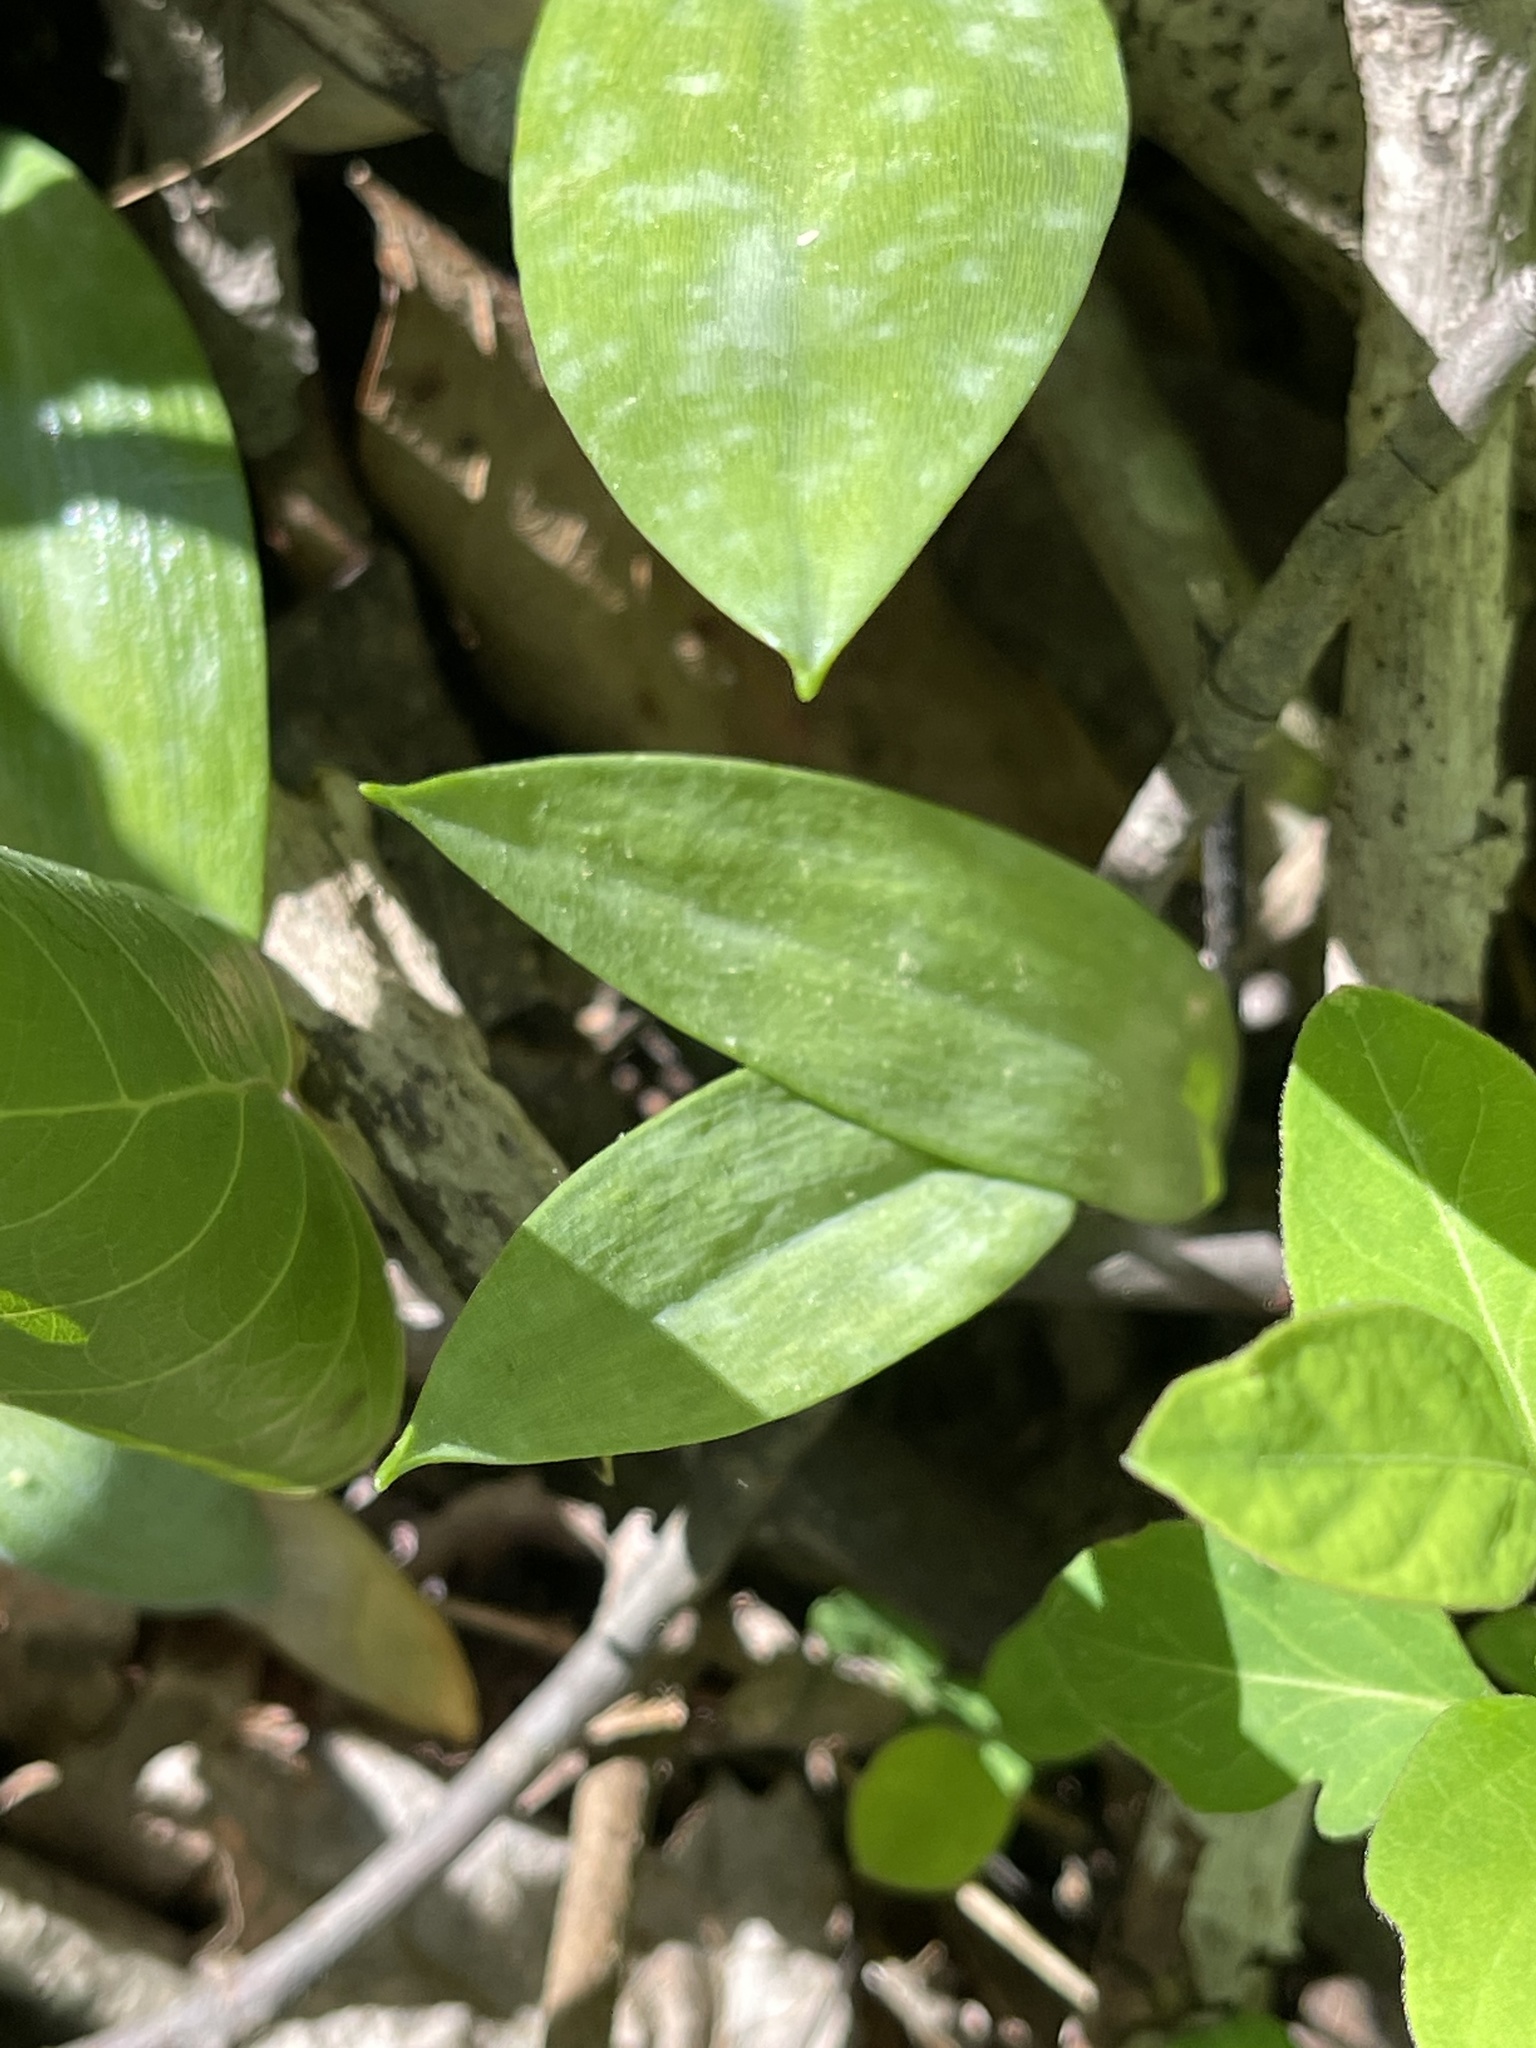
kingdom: Plantae
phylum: Tracheophyta
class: Liliopsida
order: Liliales
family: Liliaceae
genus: Erythronium
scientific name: Erythronium americanum
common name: Yellow adder's-tongue
